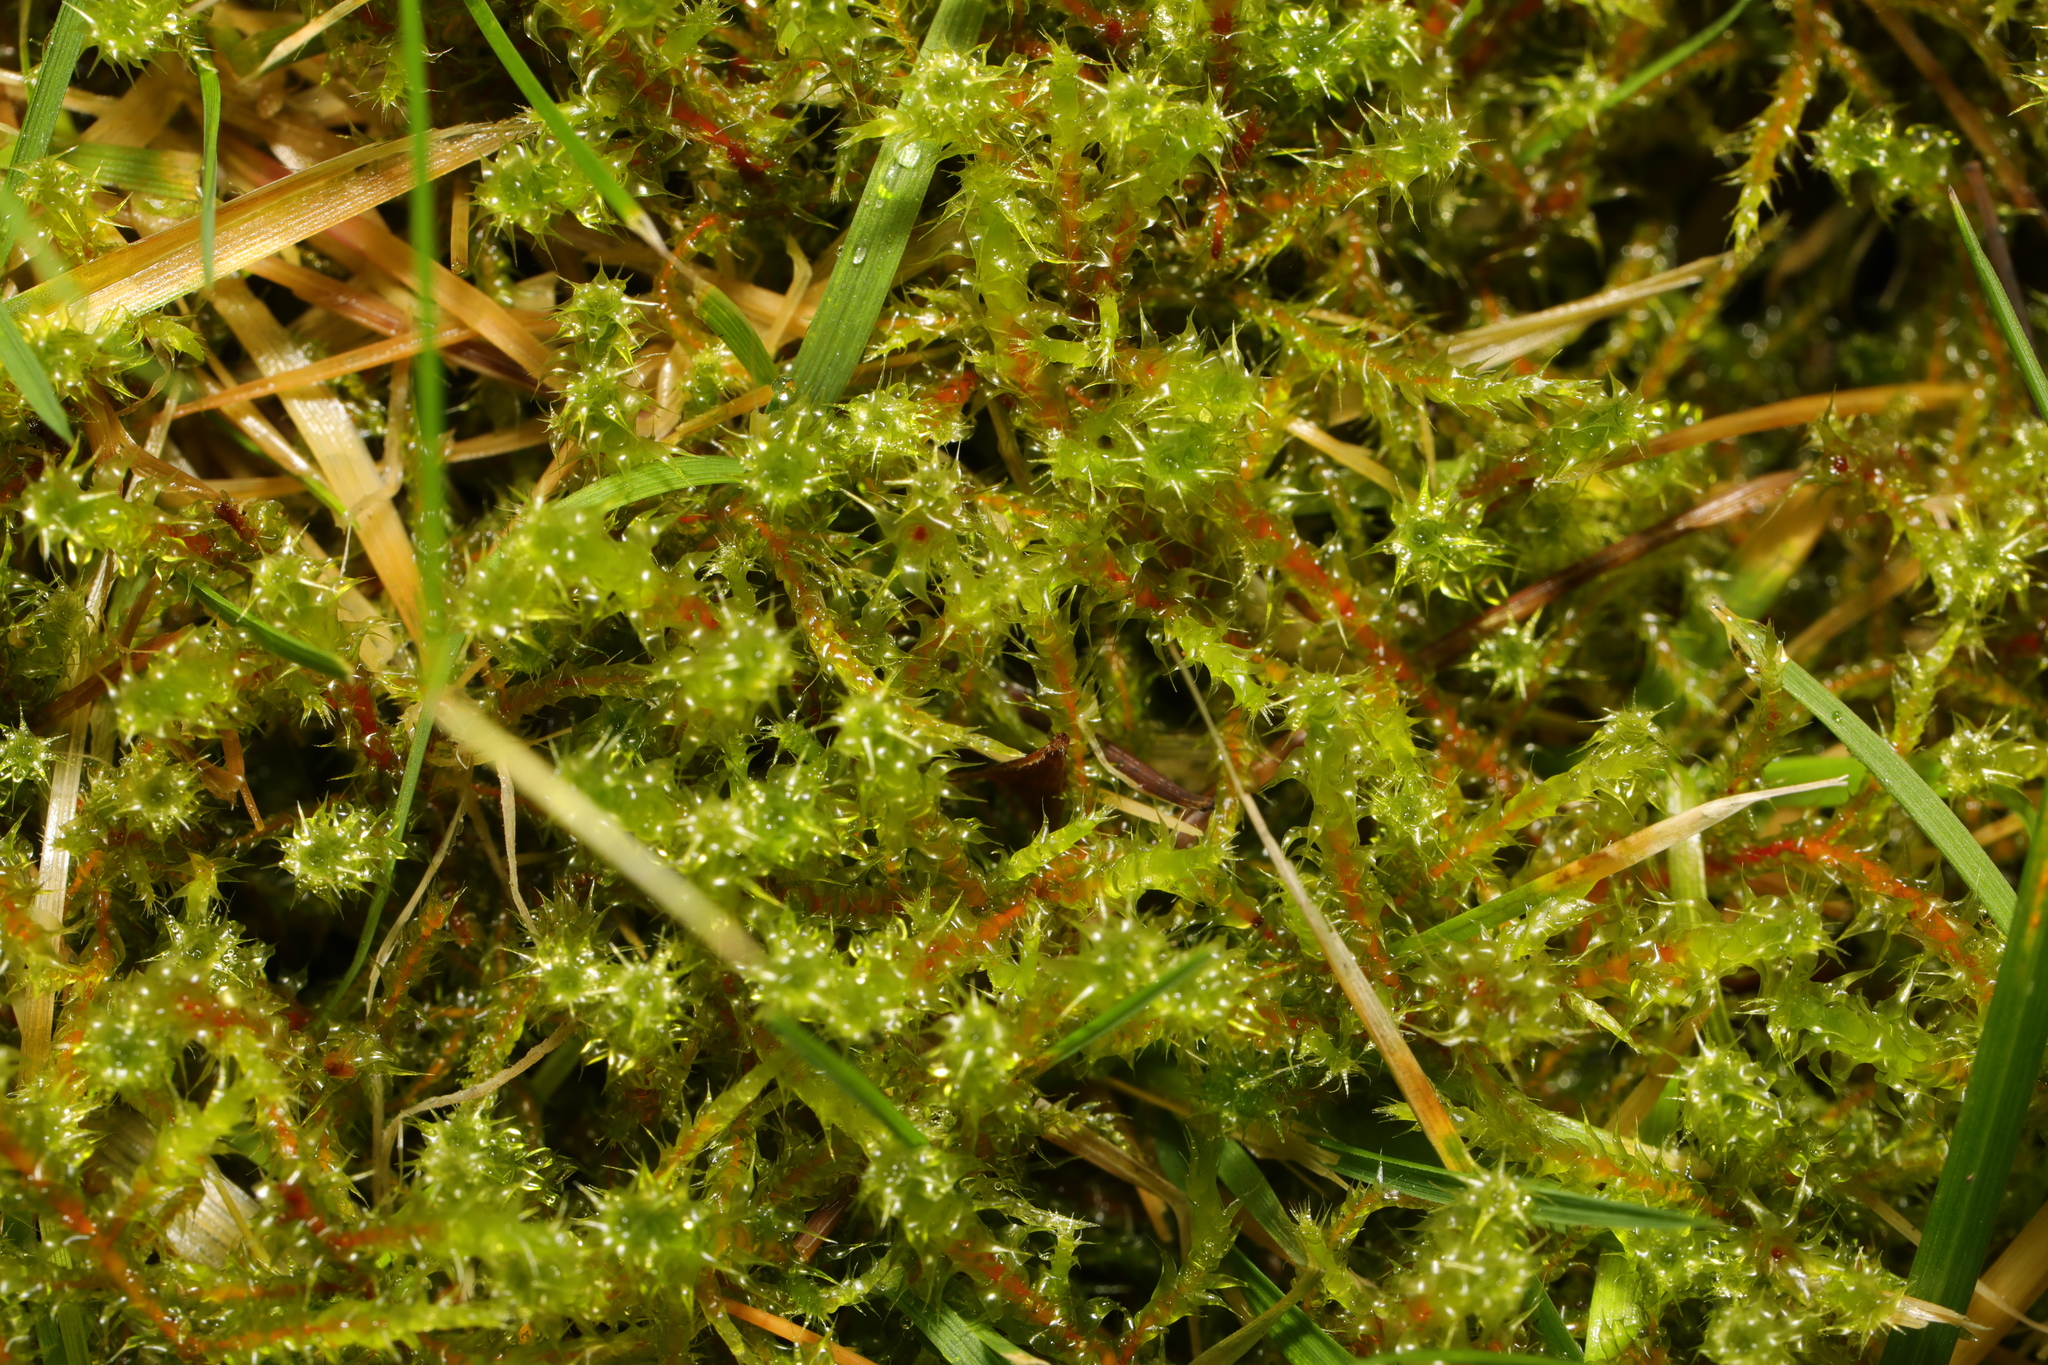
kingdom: Plantae
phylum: Bryophyta
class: Bryopsida
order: Hypnales
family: Hylocomiaceae
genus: Rhytidiadelphus
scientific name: Rhytidiadelphus squarrosus
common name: Springy turf-moss
